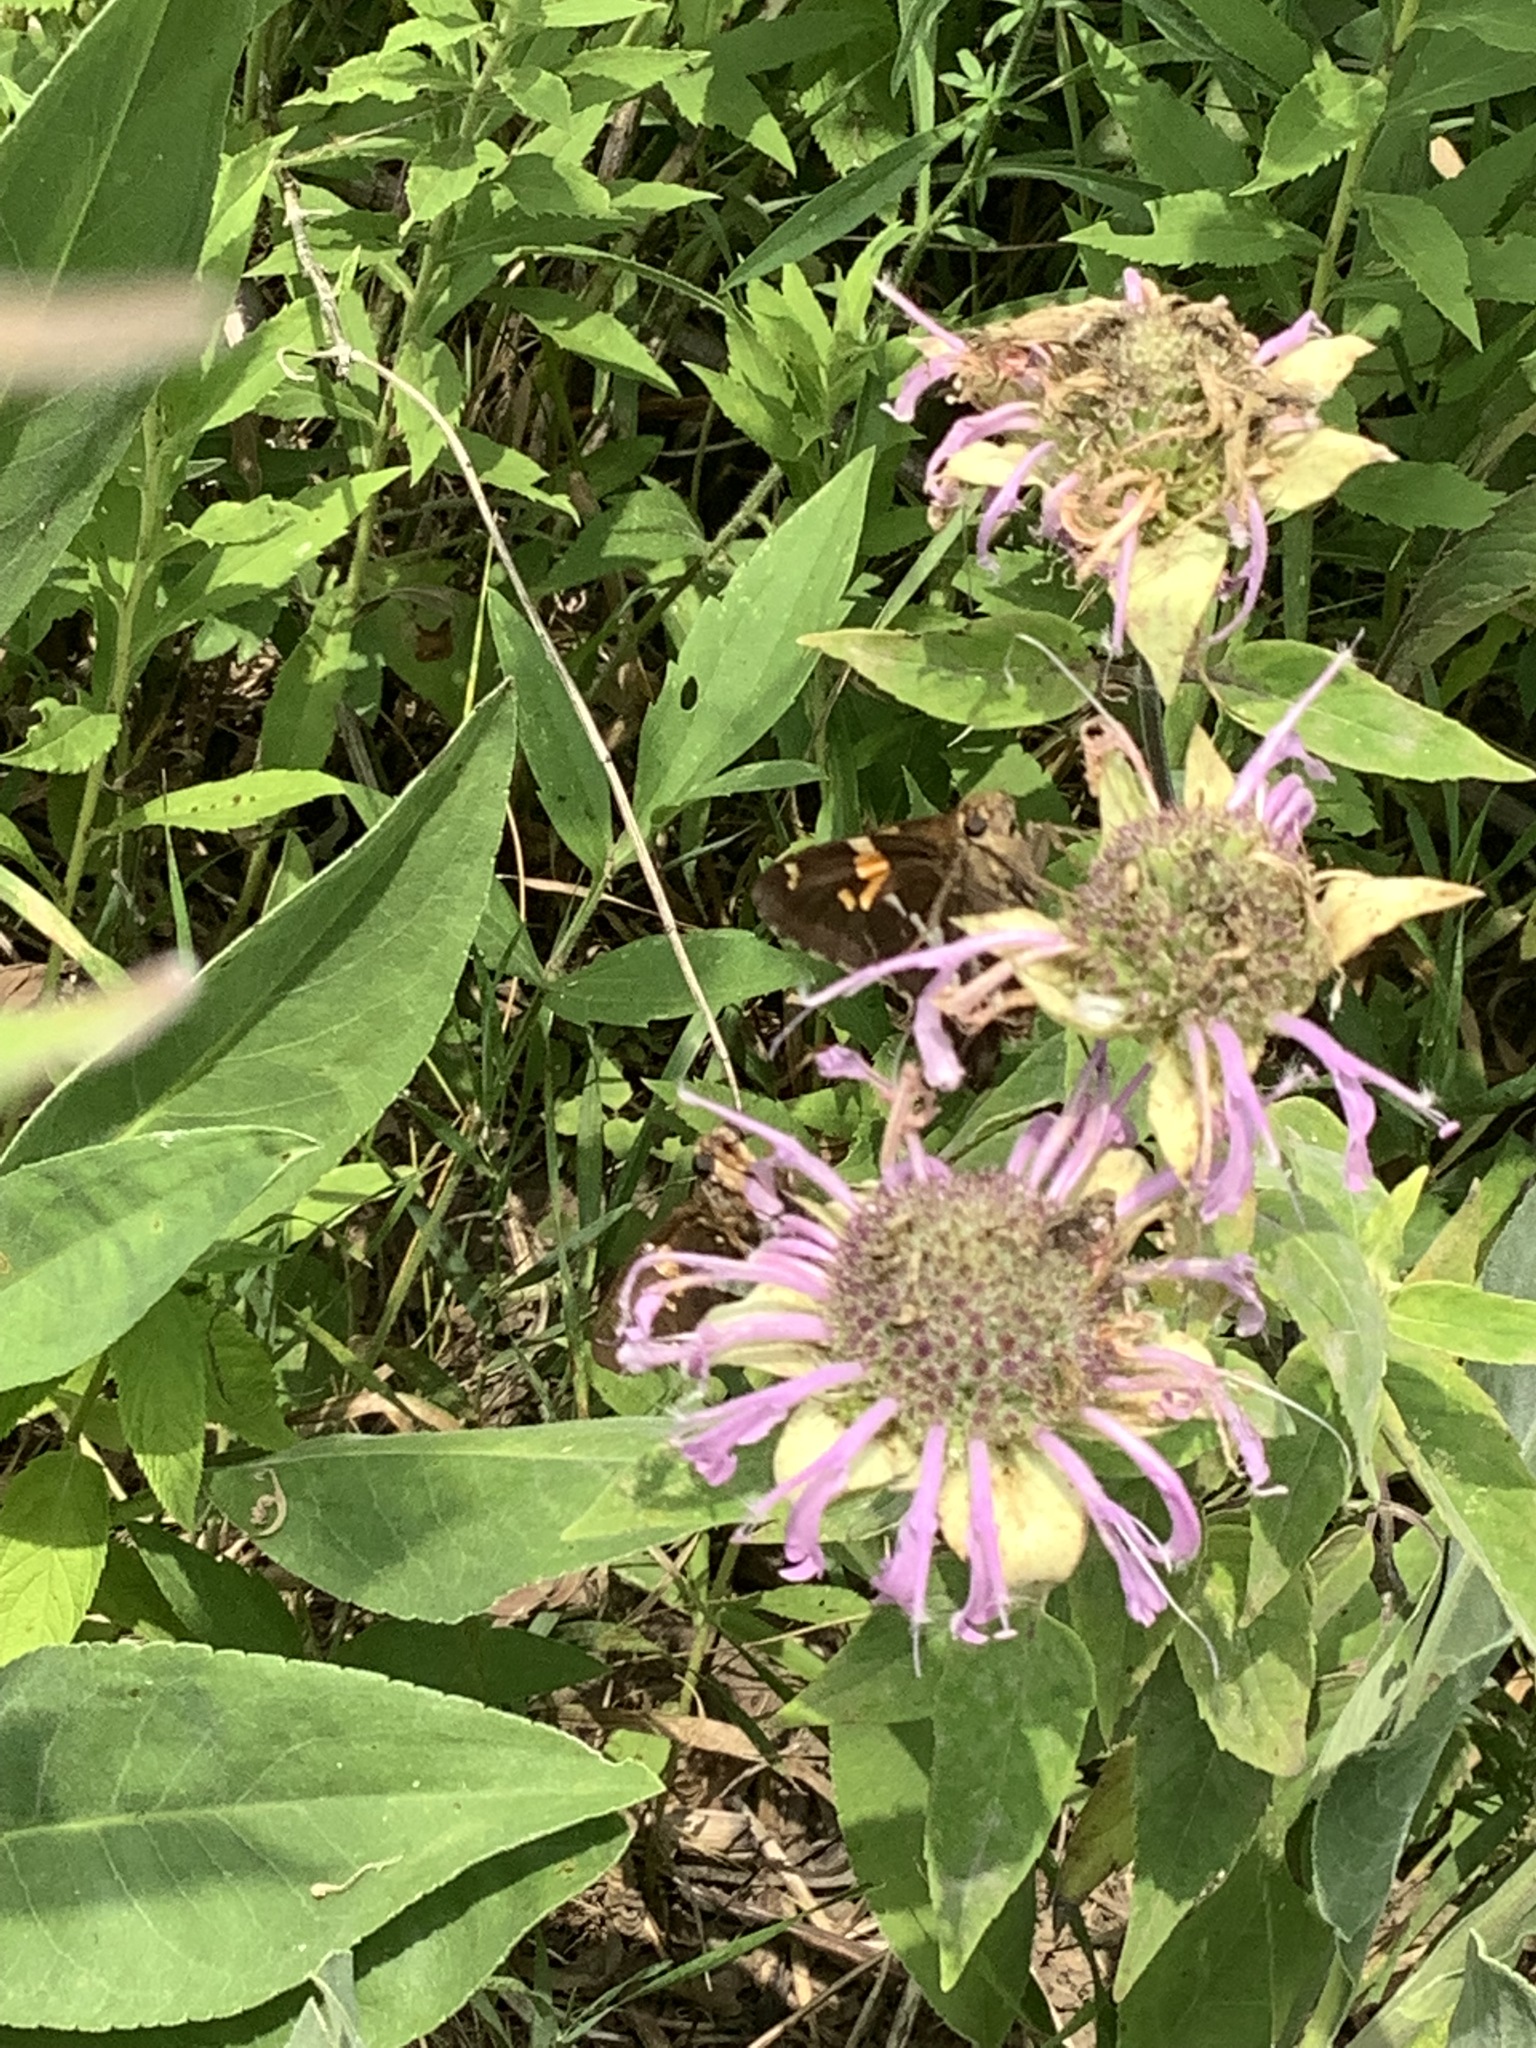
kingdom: Animalia
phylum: Arthropoda
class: Insecta
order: Lepidoptera
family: Hesperiidae
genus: Epargyreus
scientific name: Epargyreus clarus
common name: Silver-spotted skipper
